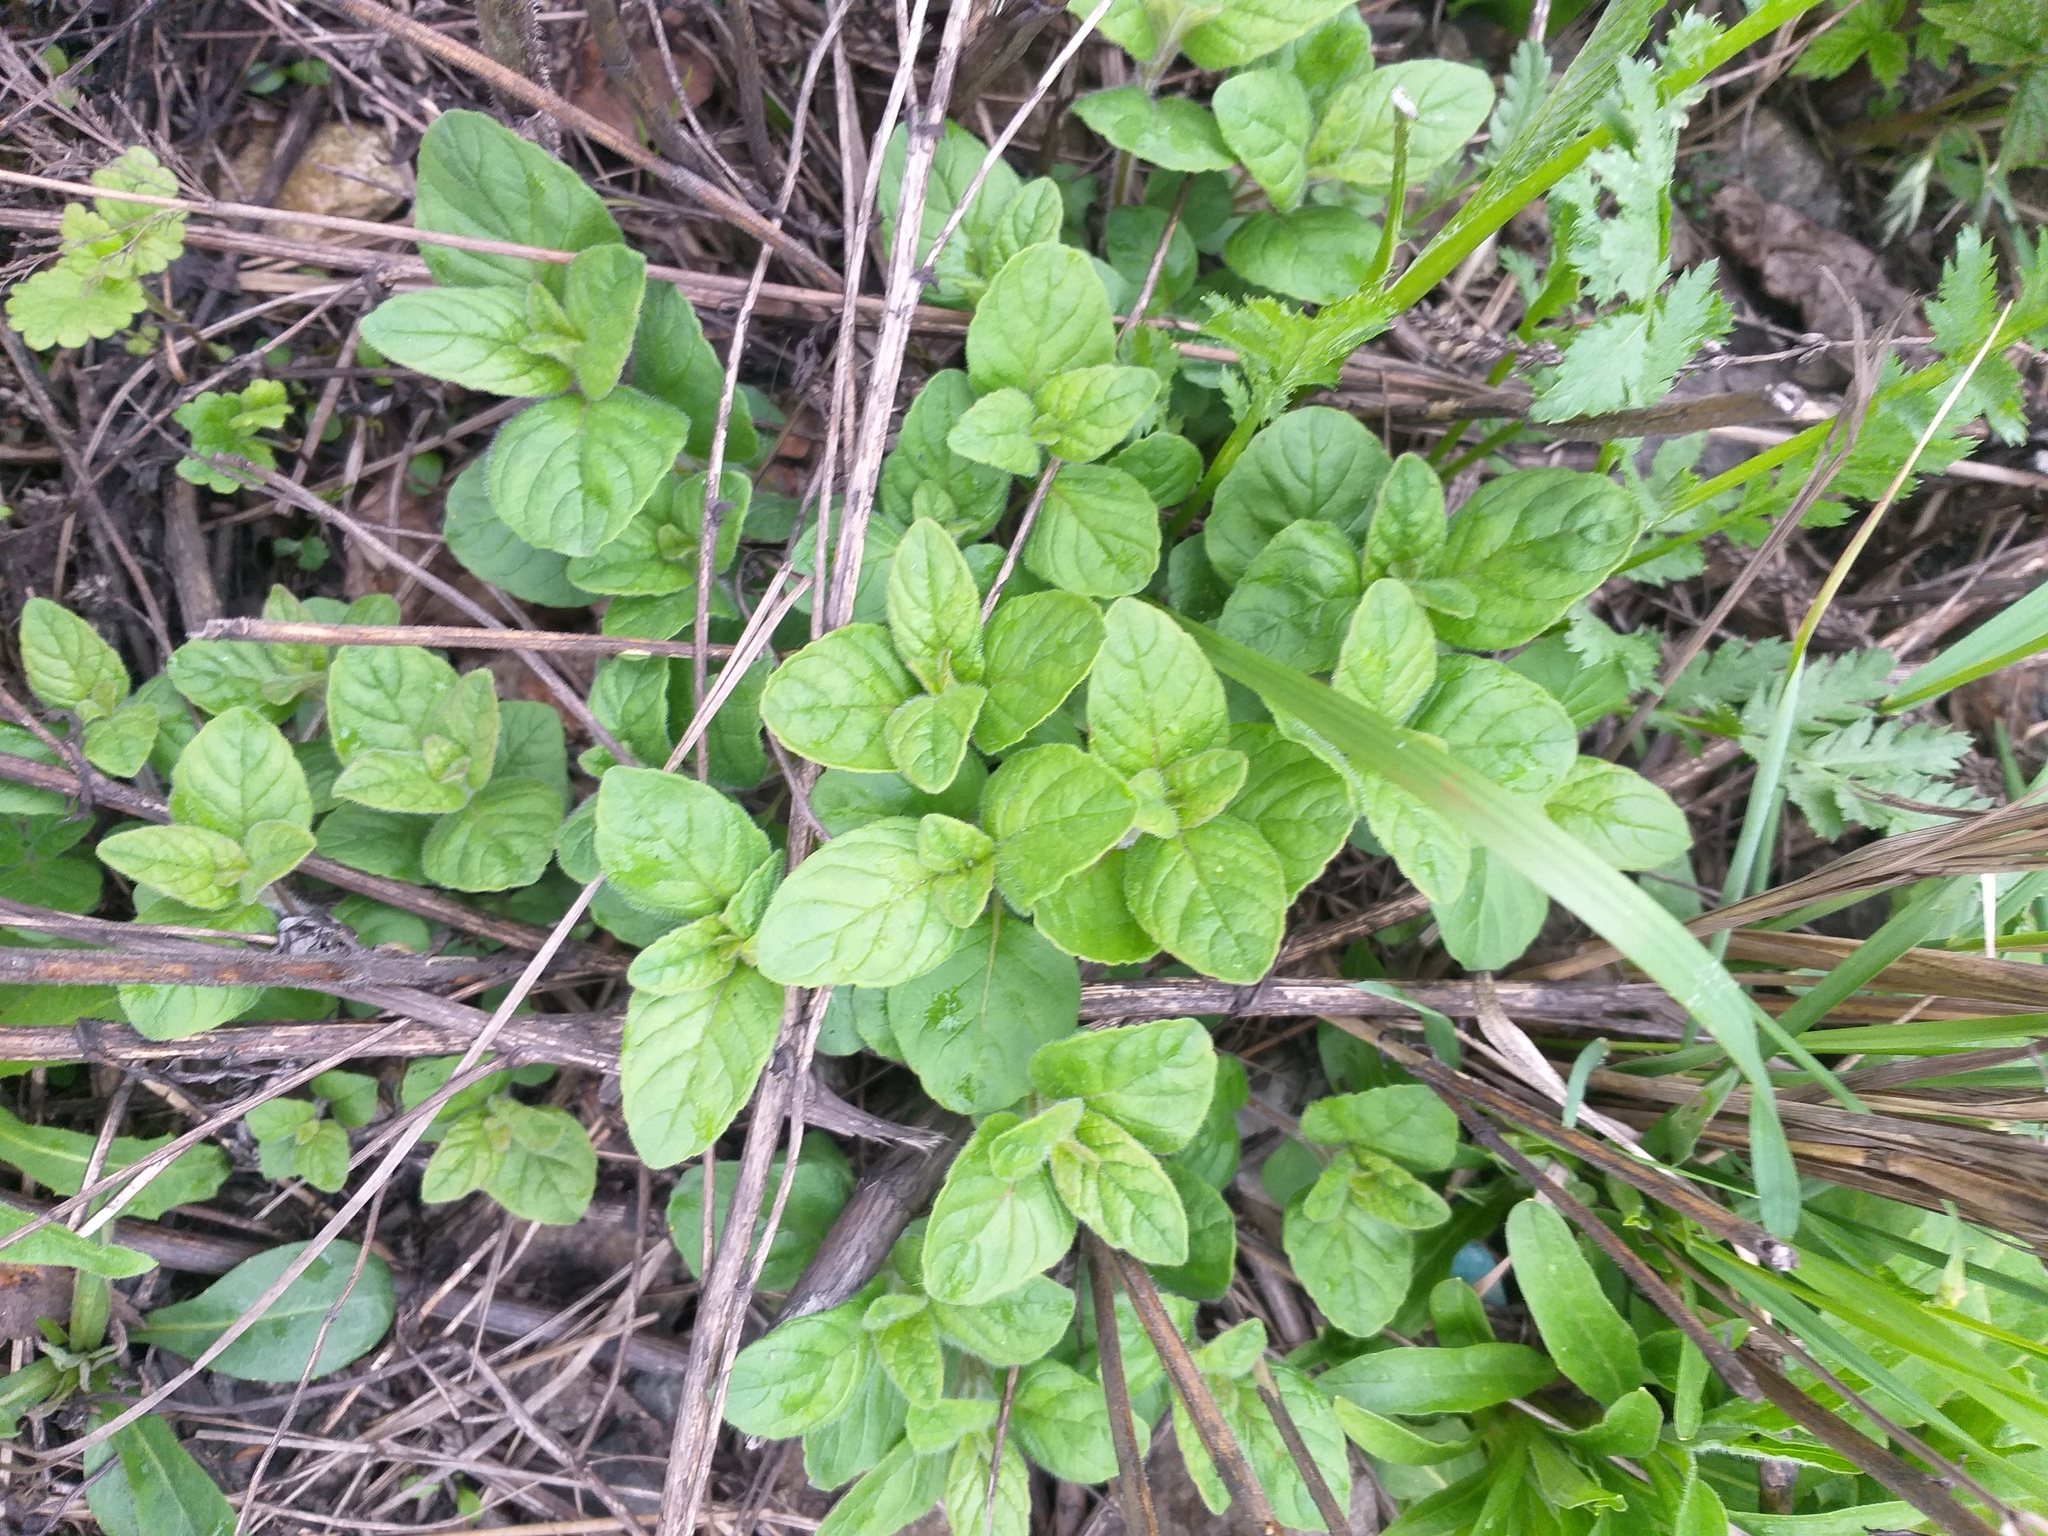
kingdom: Plantae
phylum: Tracheophyta
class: Magnoliopsida
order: Lamiales
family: Lamiaceae
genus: Clinopodium
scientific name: Clinopodium vulgare
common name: Wild basil
